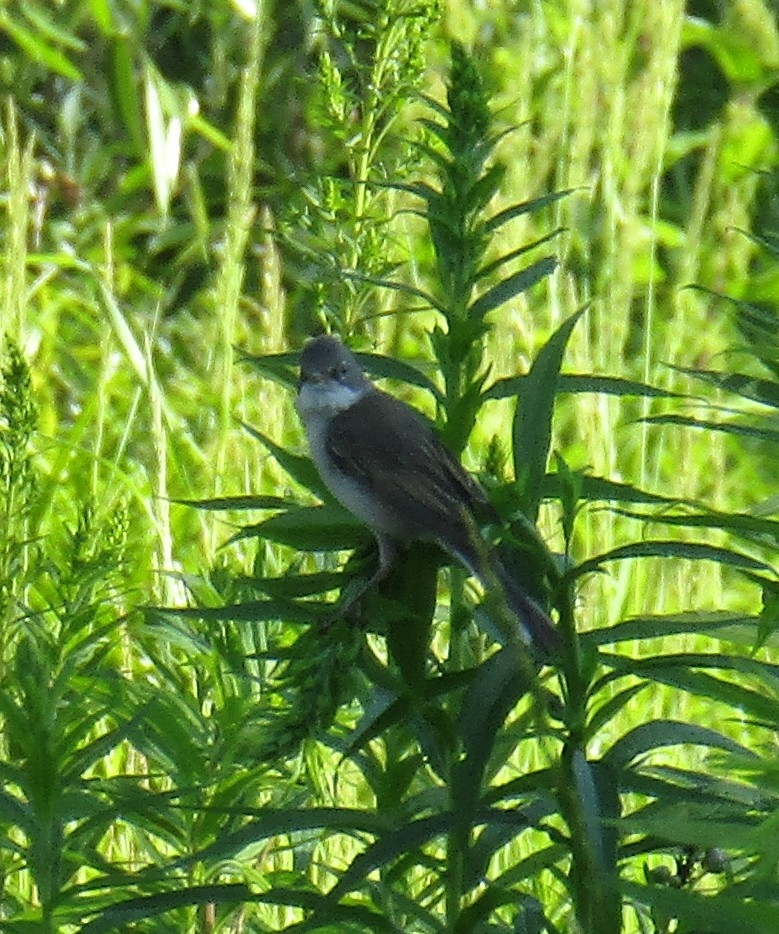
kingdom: Animalia
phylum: Chordata
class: Aves
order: Passeriformes
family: Sylviidae
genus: Sylvia
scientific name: Sylvia communis
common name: Common whitethroat
